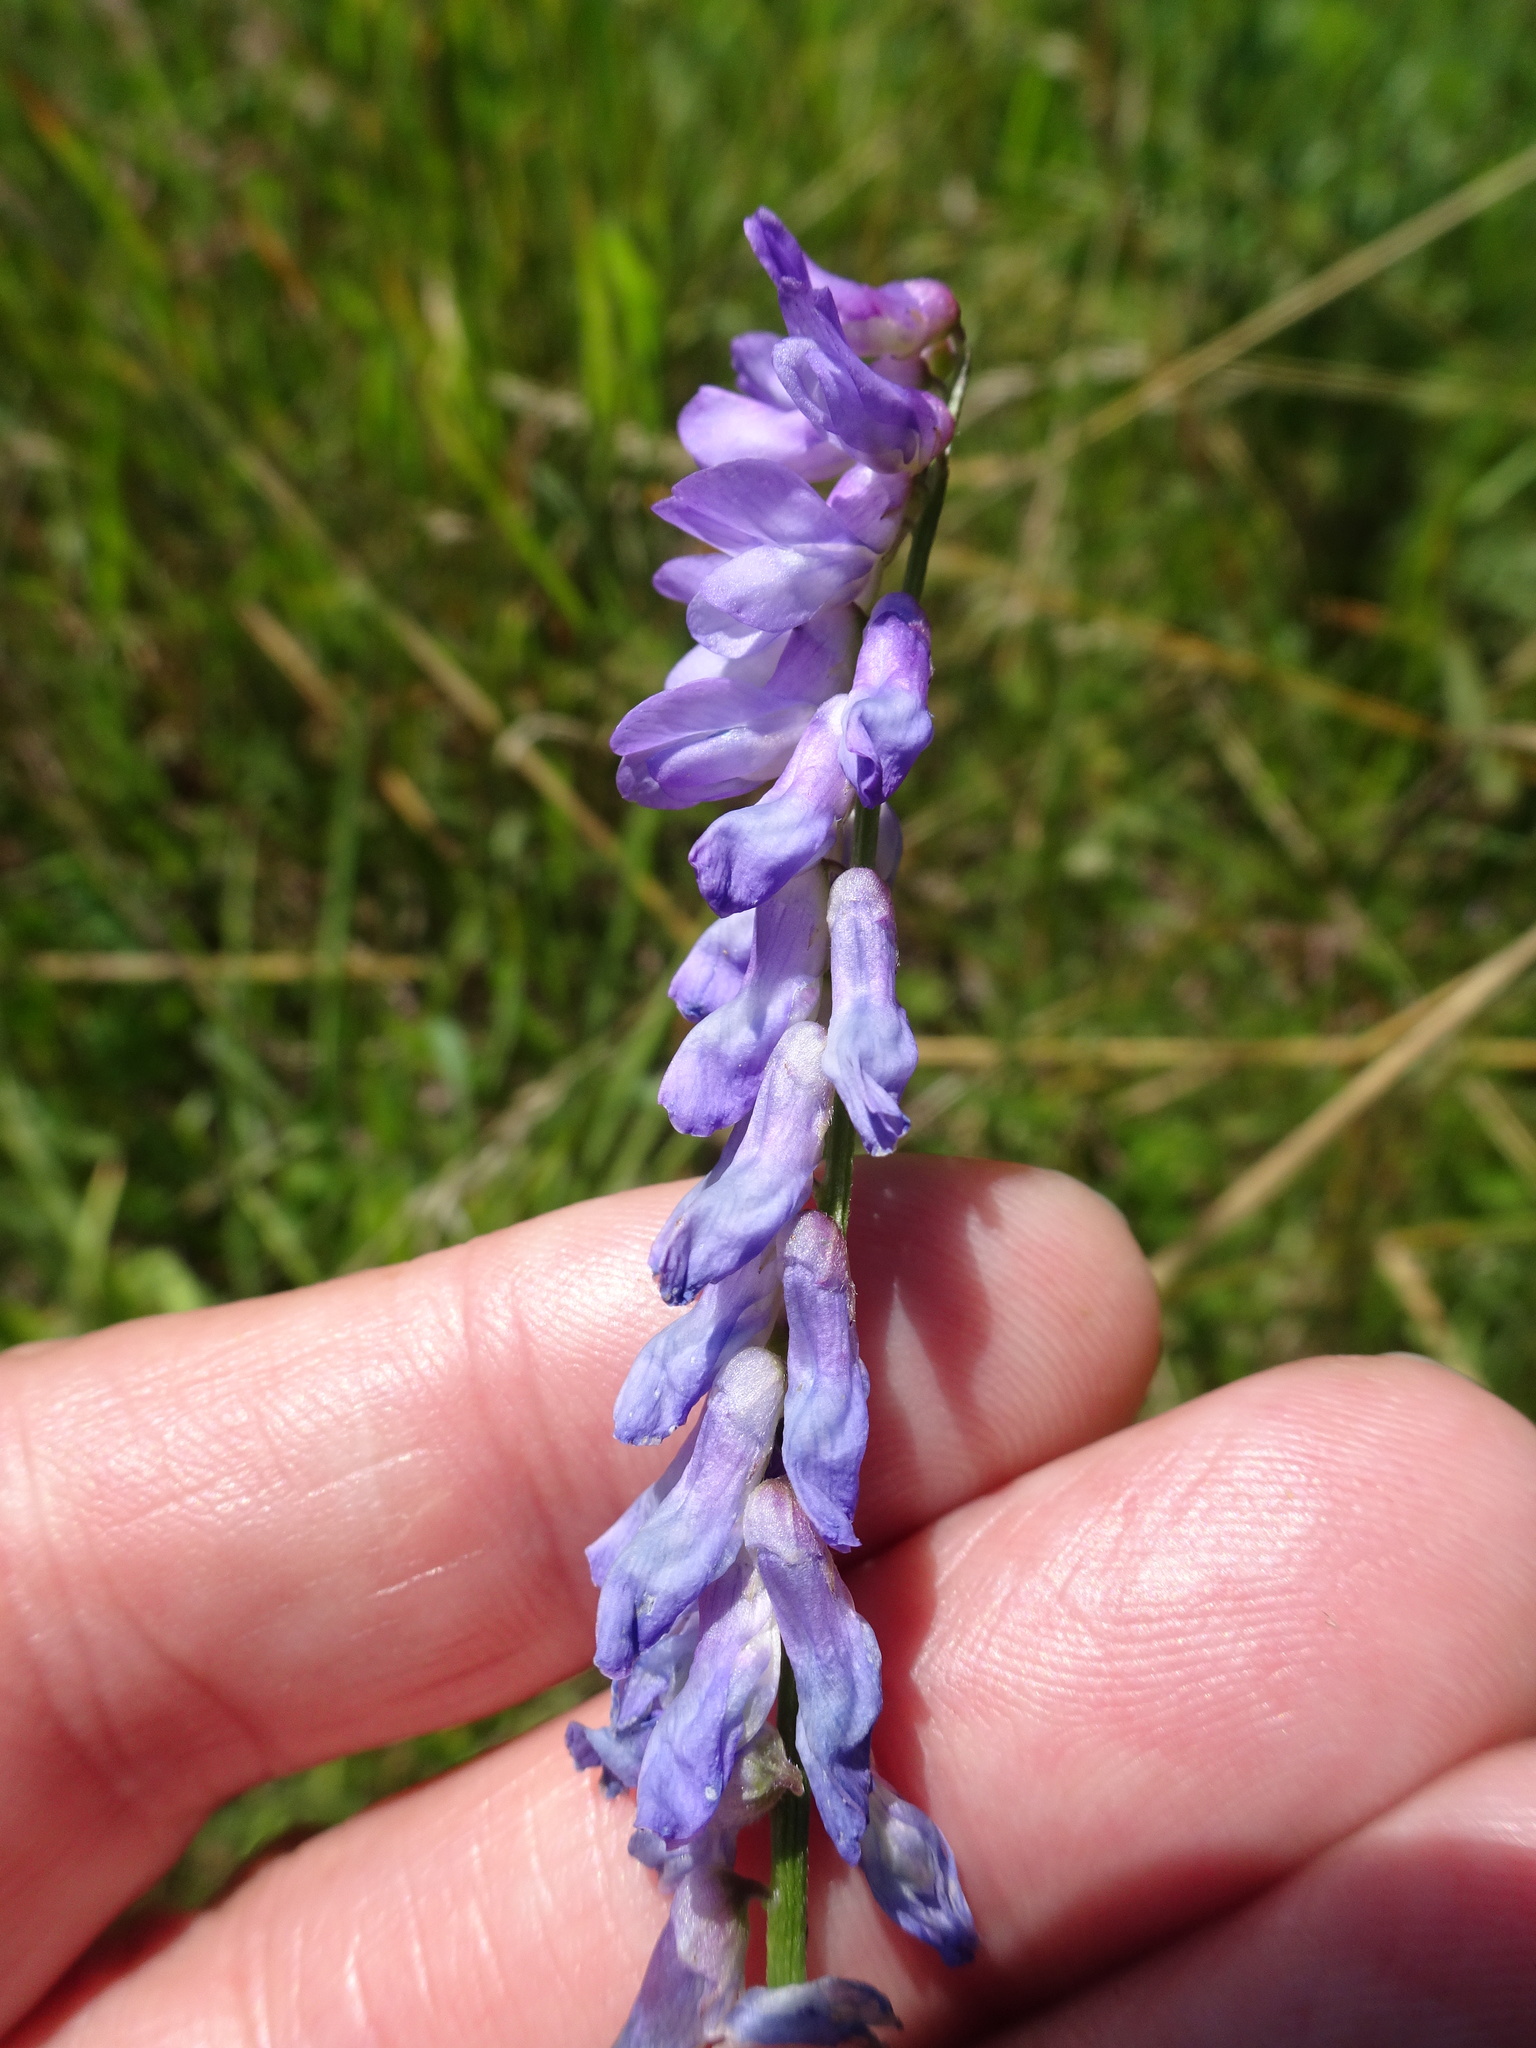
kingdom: Plantae
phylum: Tracheophyta
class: Magnoliopsida
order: Fabales
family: Fabaceae
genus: Vicia
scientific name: Vicia cracca
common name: Bird vetch
